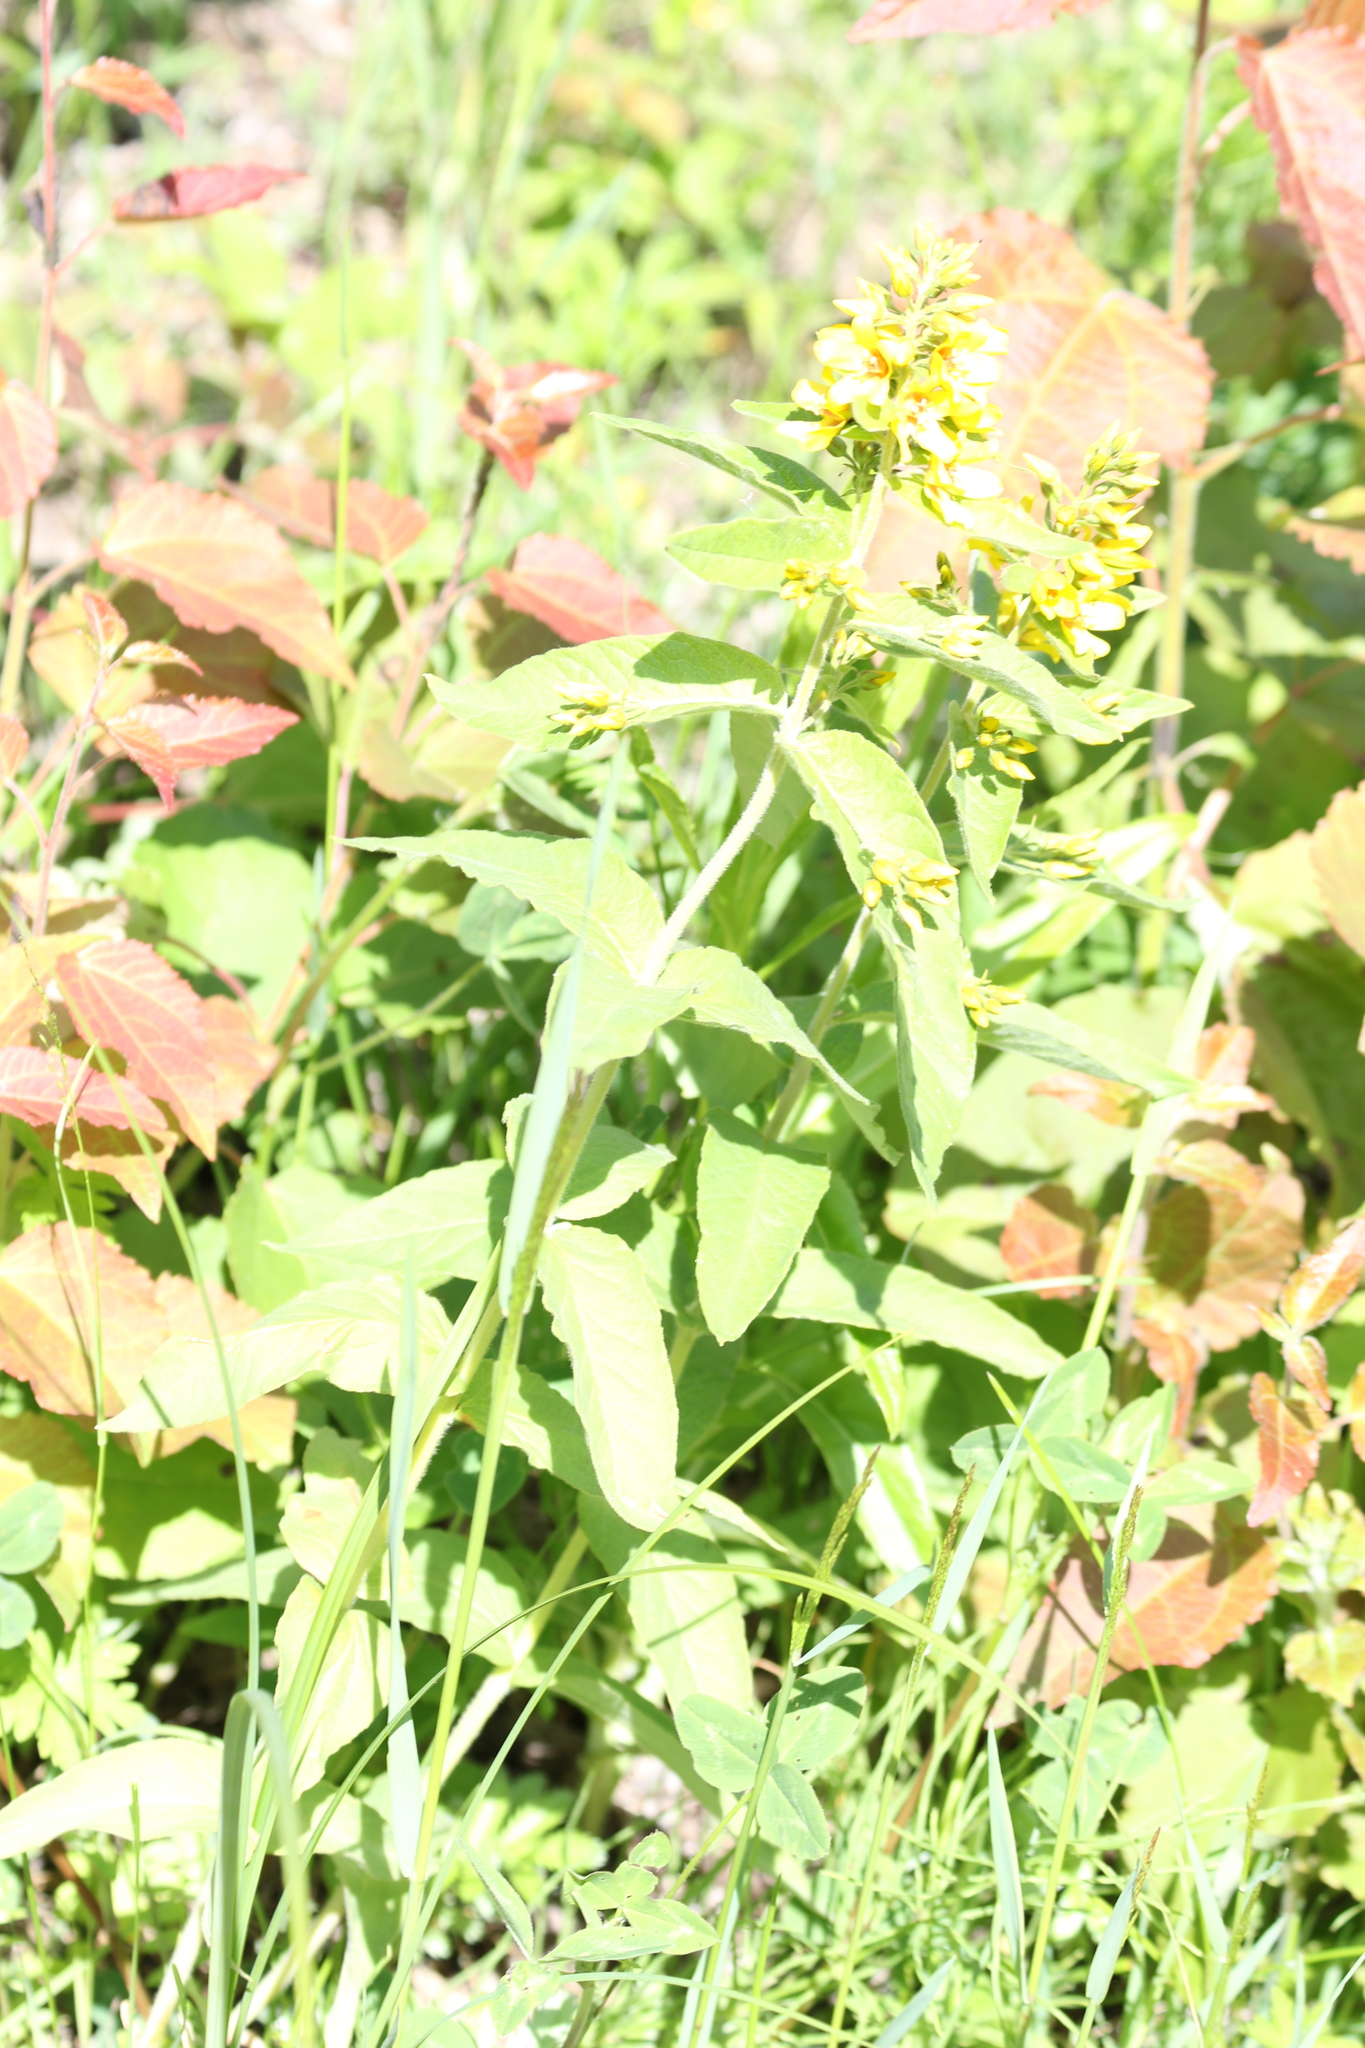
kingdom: Plantae
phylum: Tracheophyta
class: Magnoliopsida
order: Ericales
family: Primulaceae
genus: Lysimachia
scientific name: Lysimachia vulgaris
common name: Yellow loosestrife
